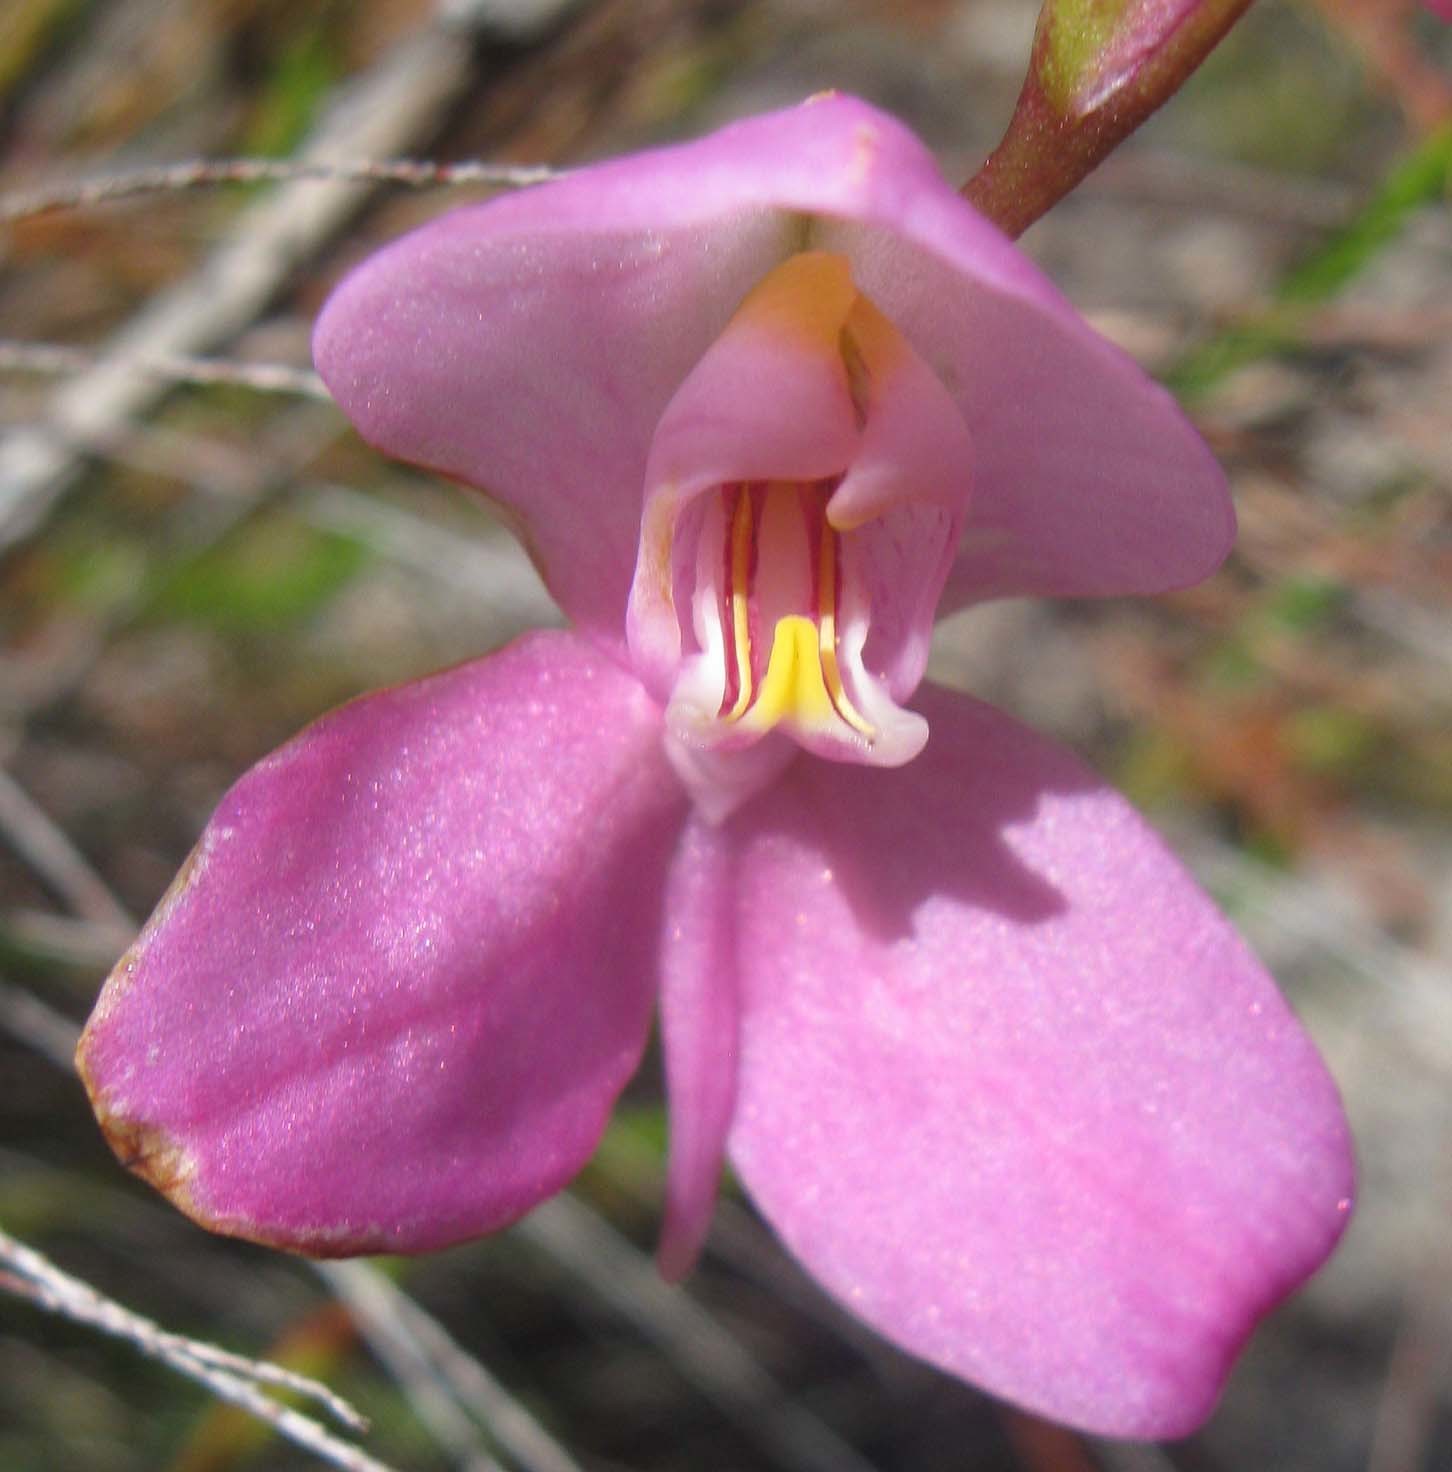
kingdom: Plantae
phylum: Tracheophyta
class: Liliopsida
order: Asparagales
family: Orchidaceae
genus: Disa
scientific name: Disa racemosa
